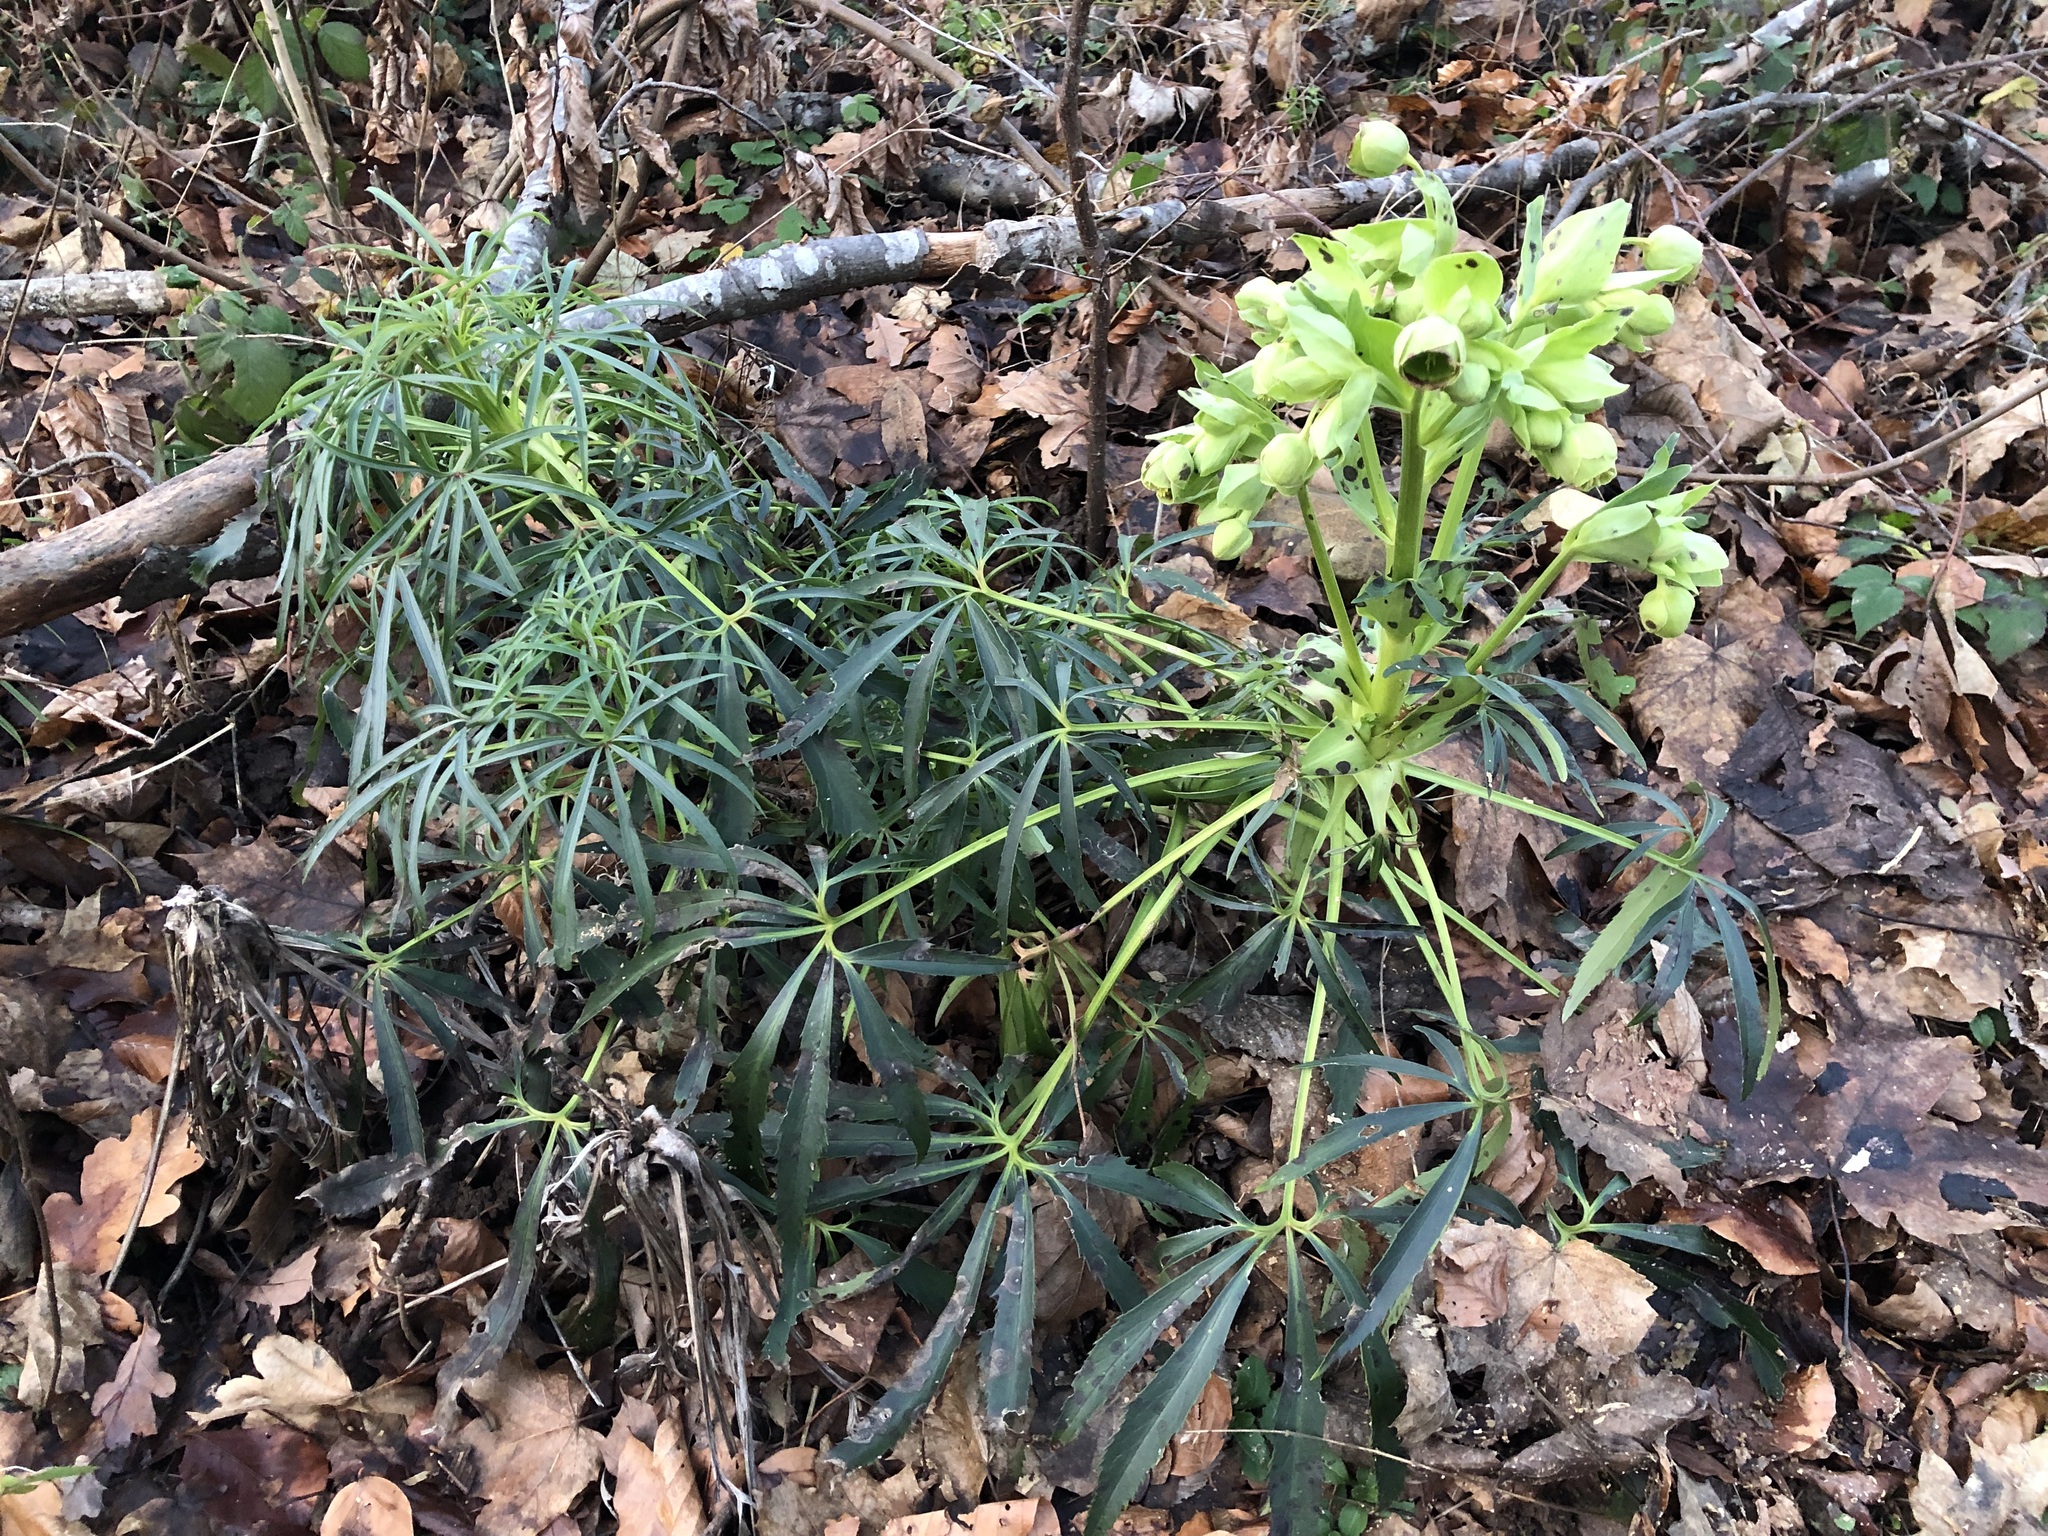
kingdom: Plantae
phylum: Tracheophyta
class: Magnoliopsida
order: Ranunculales
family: Ranunculaceae
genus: Helleborus
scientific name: Helleborus foetidus
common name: Stinking hellebore
